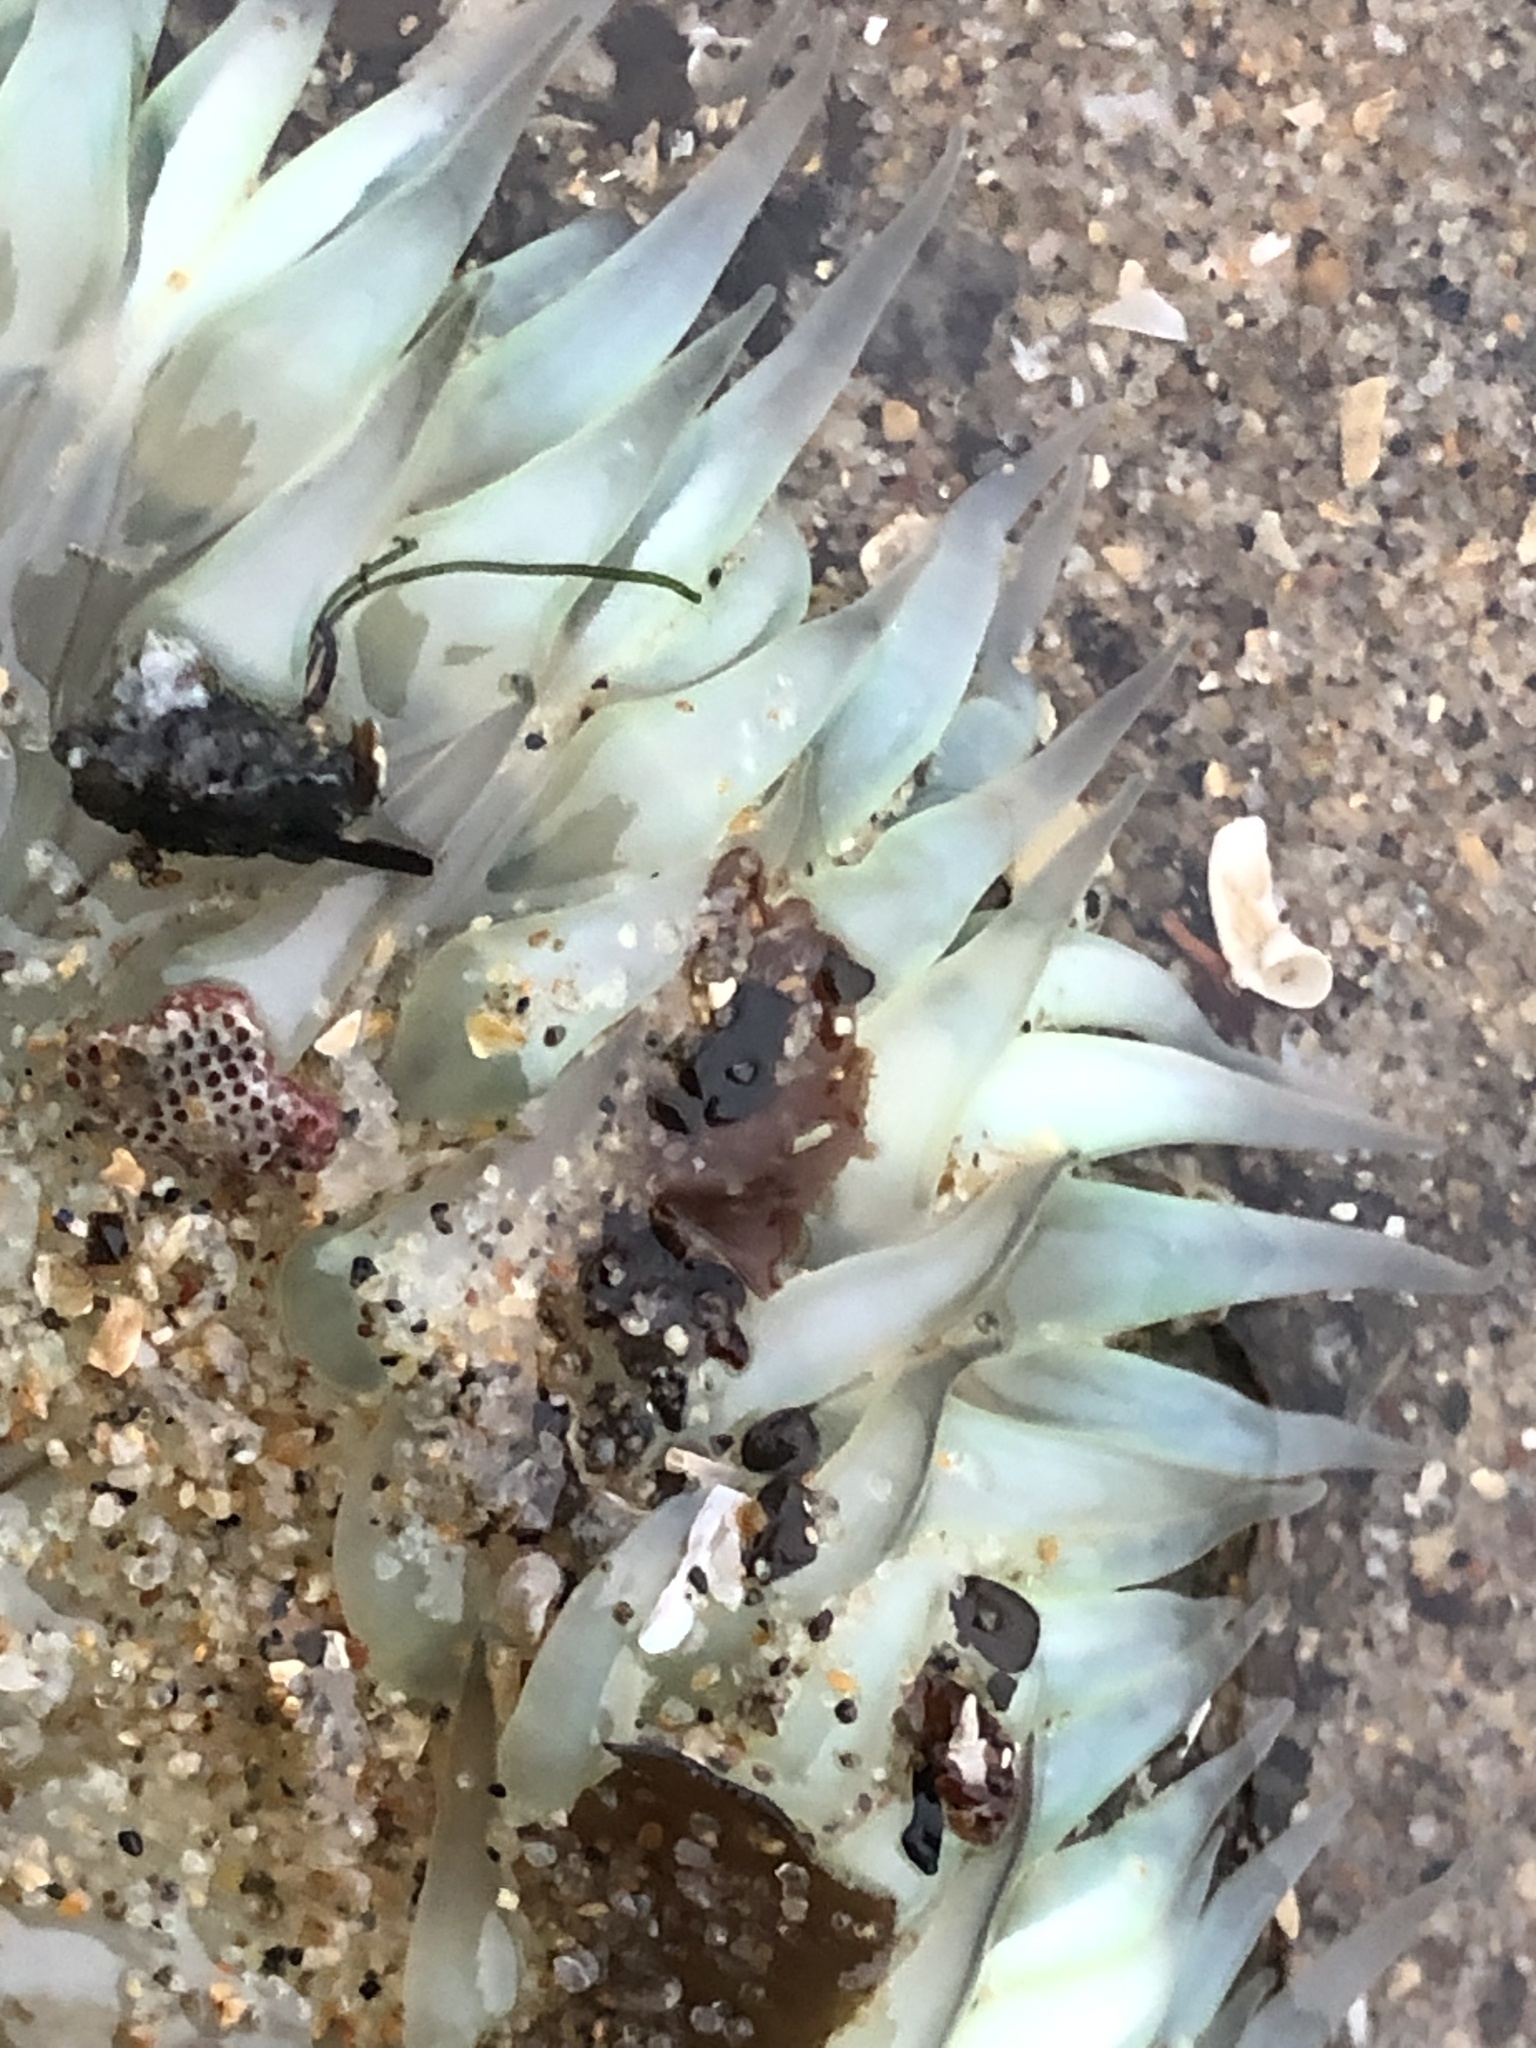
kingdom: Animalia
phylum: Cnidaria
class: Anthozoa
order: Actiniaria
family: Actiniidae
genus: Anthopleura
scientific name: Anthopleura sola
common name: Sun anemone
